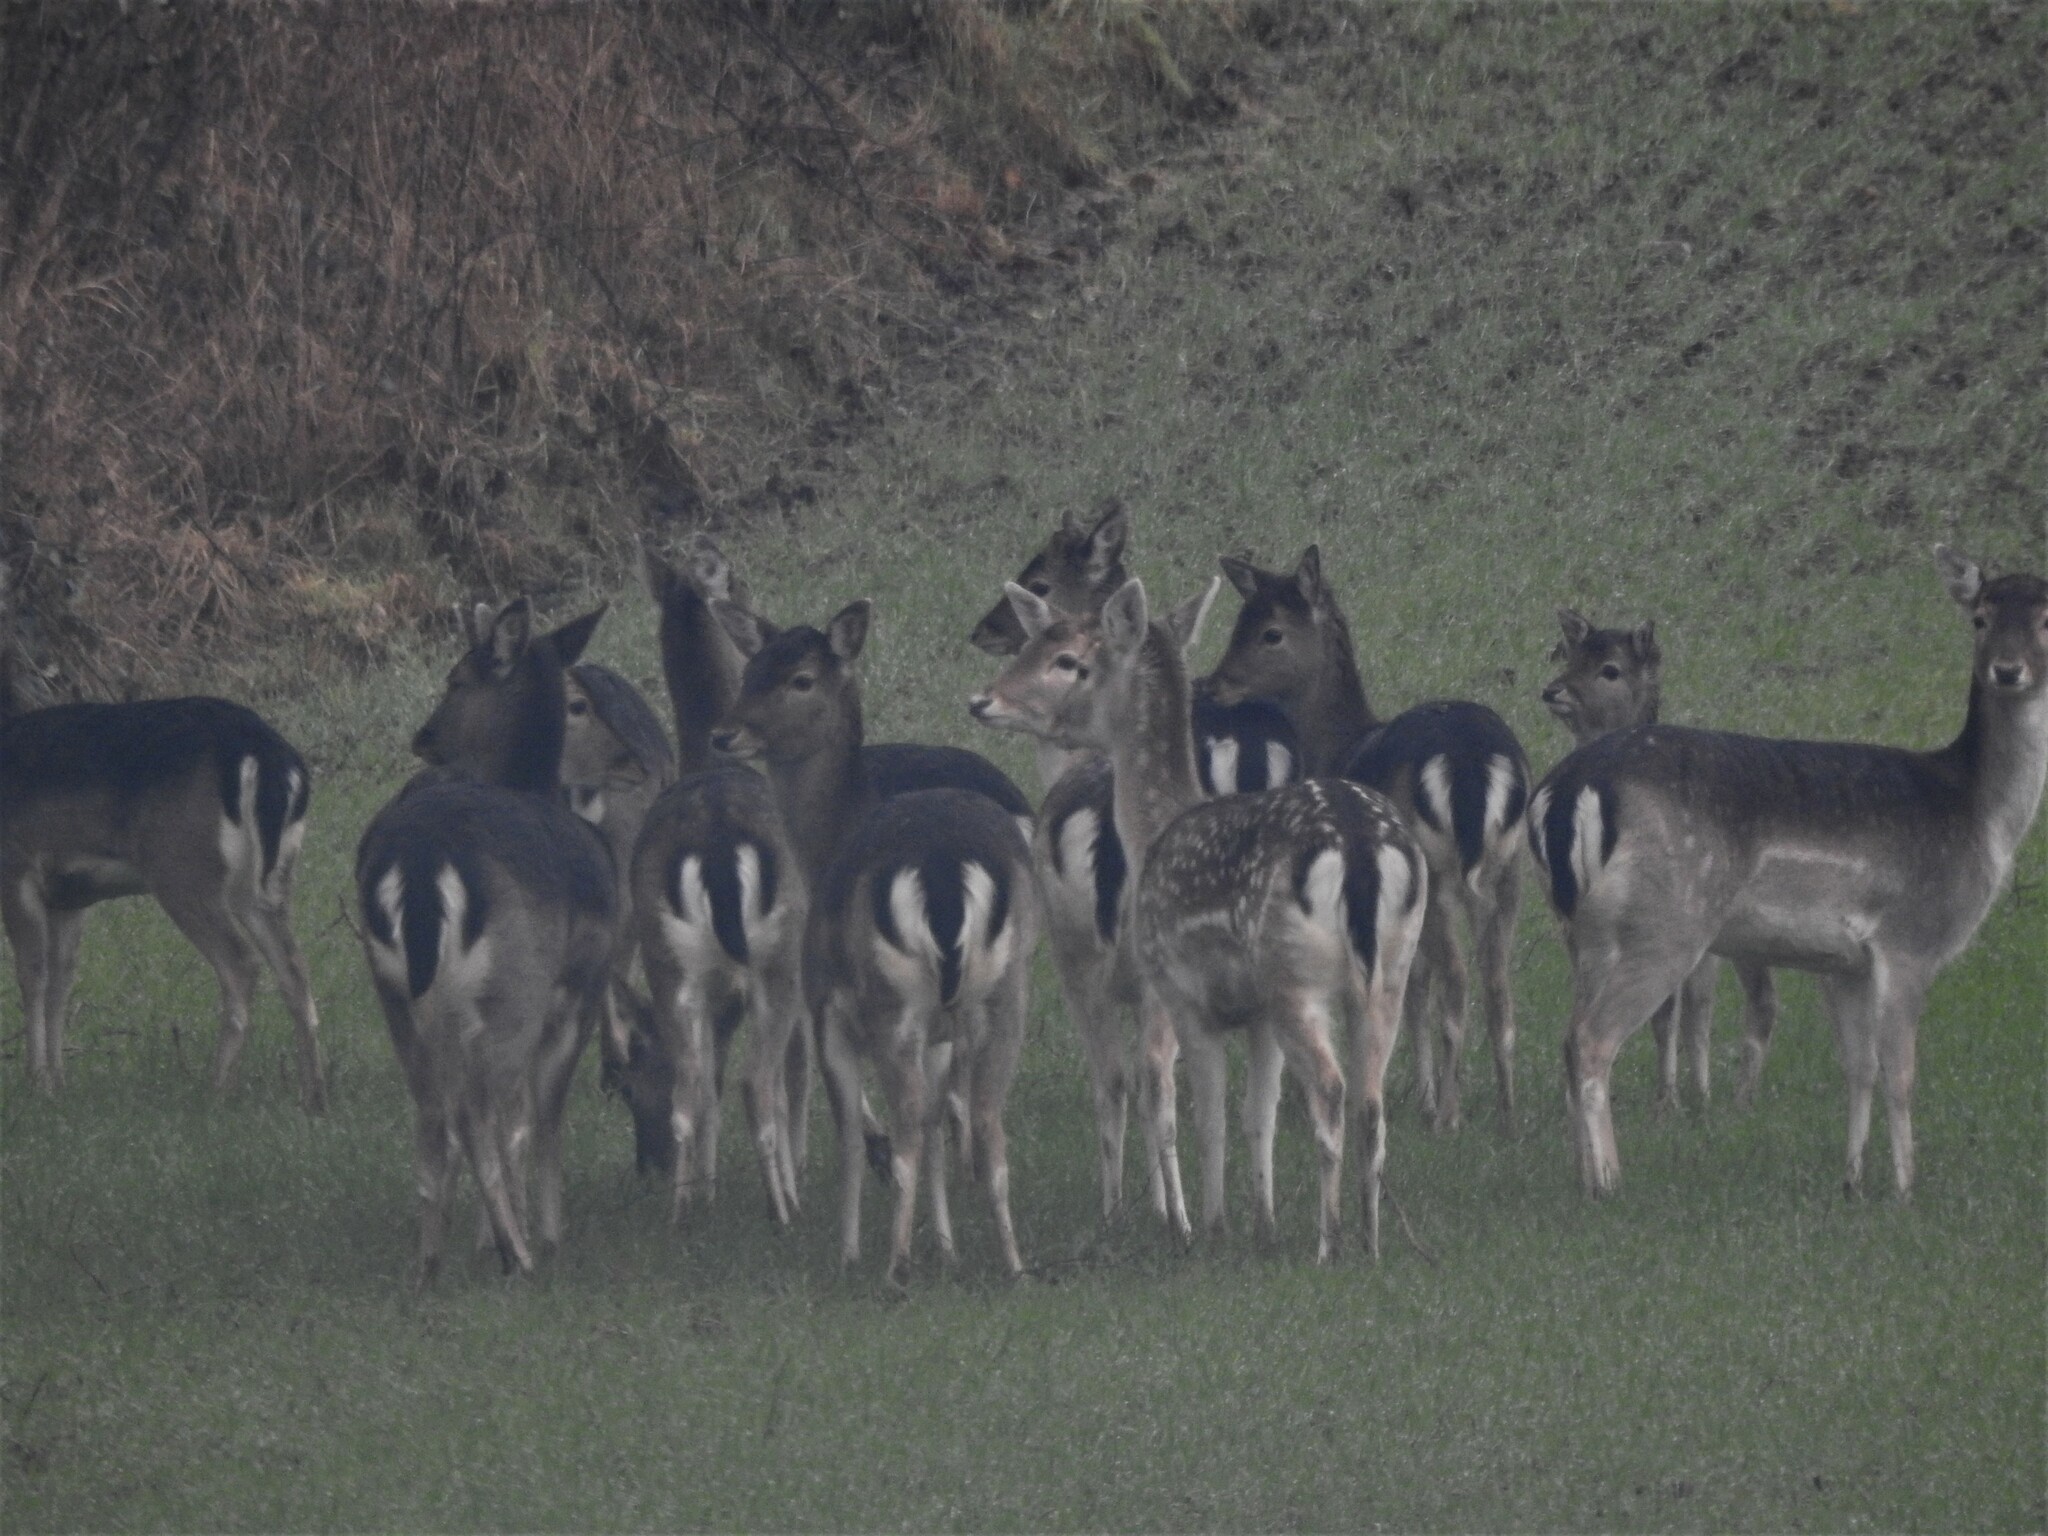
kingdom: Animalia
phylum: Chordata
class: Mammalia
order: Artiodactyla
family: Cervidae
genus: Dama
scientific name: Dama dama
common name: Fallow deer
